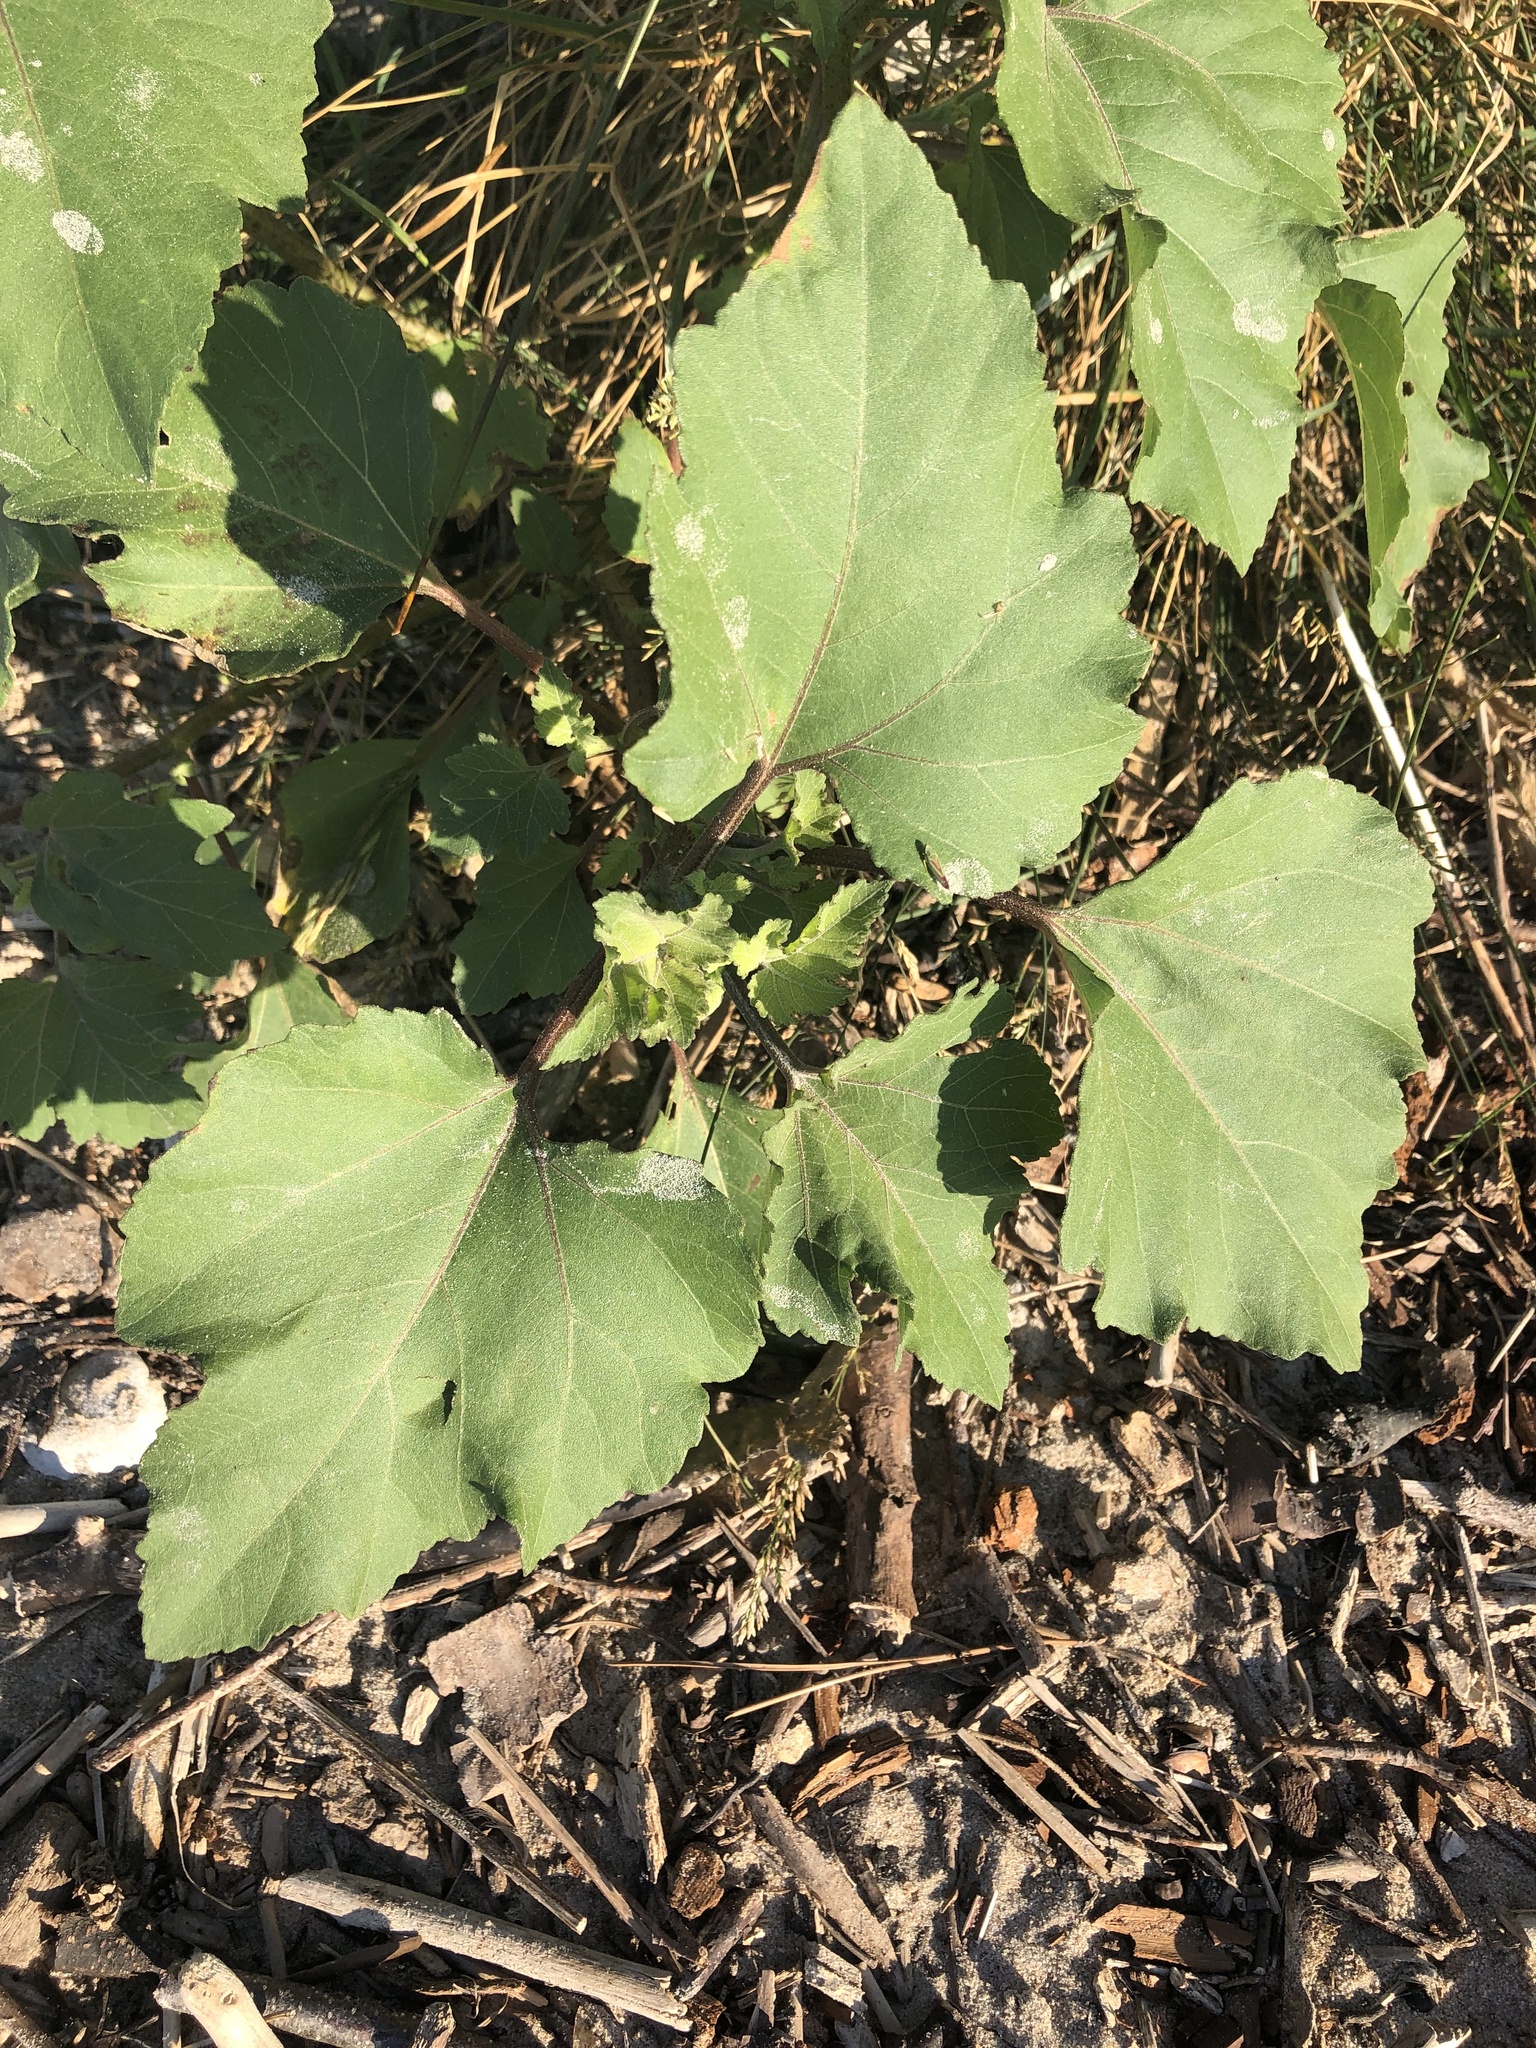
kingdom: Plantae
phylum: Tracheophyta
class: Magnoliopsida
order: Asterales
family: Asteraceae
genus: Xanthium
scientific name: Xanthium strumarium
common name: Rough cocklebur
